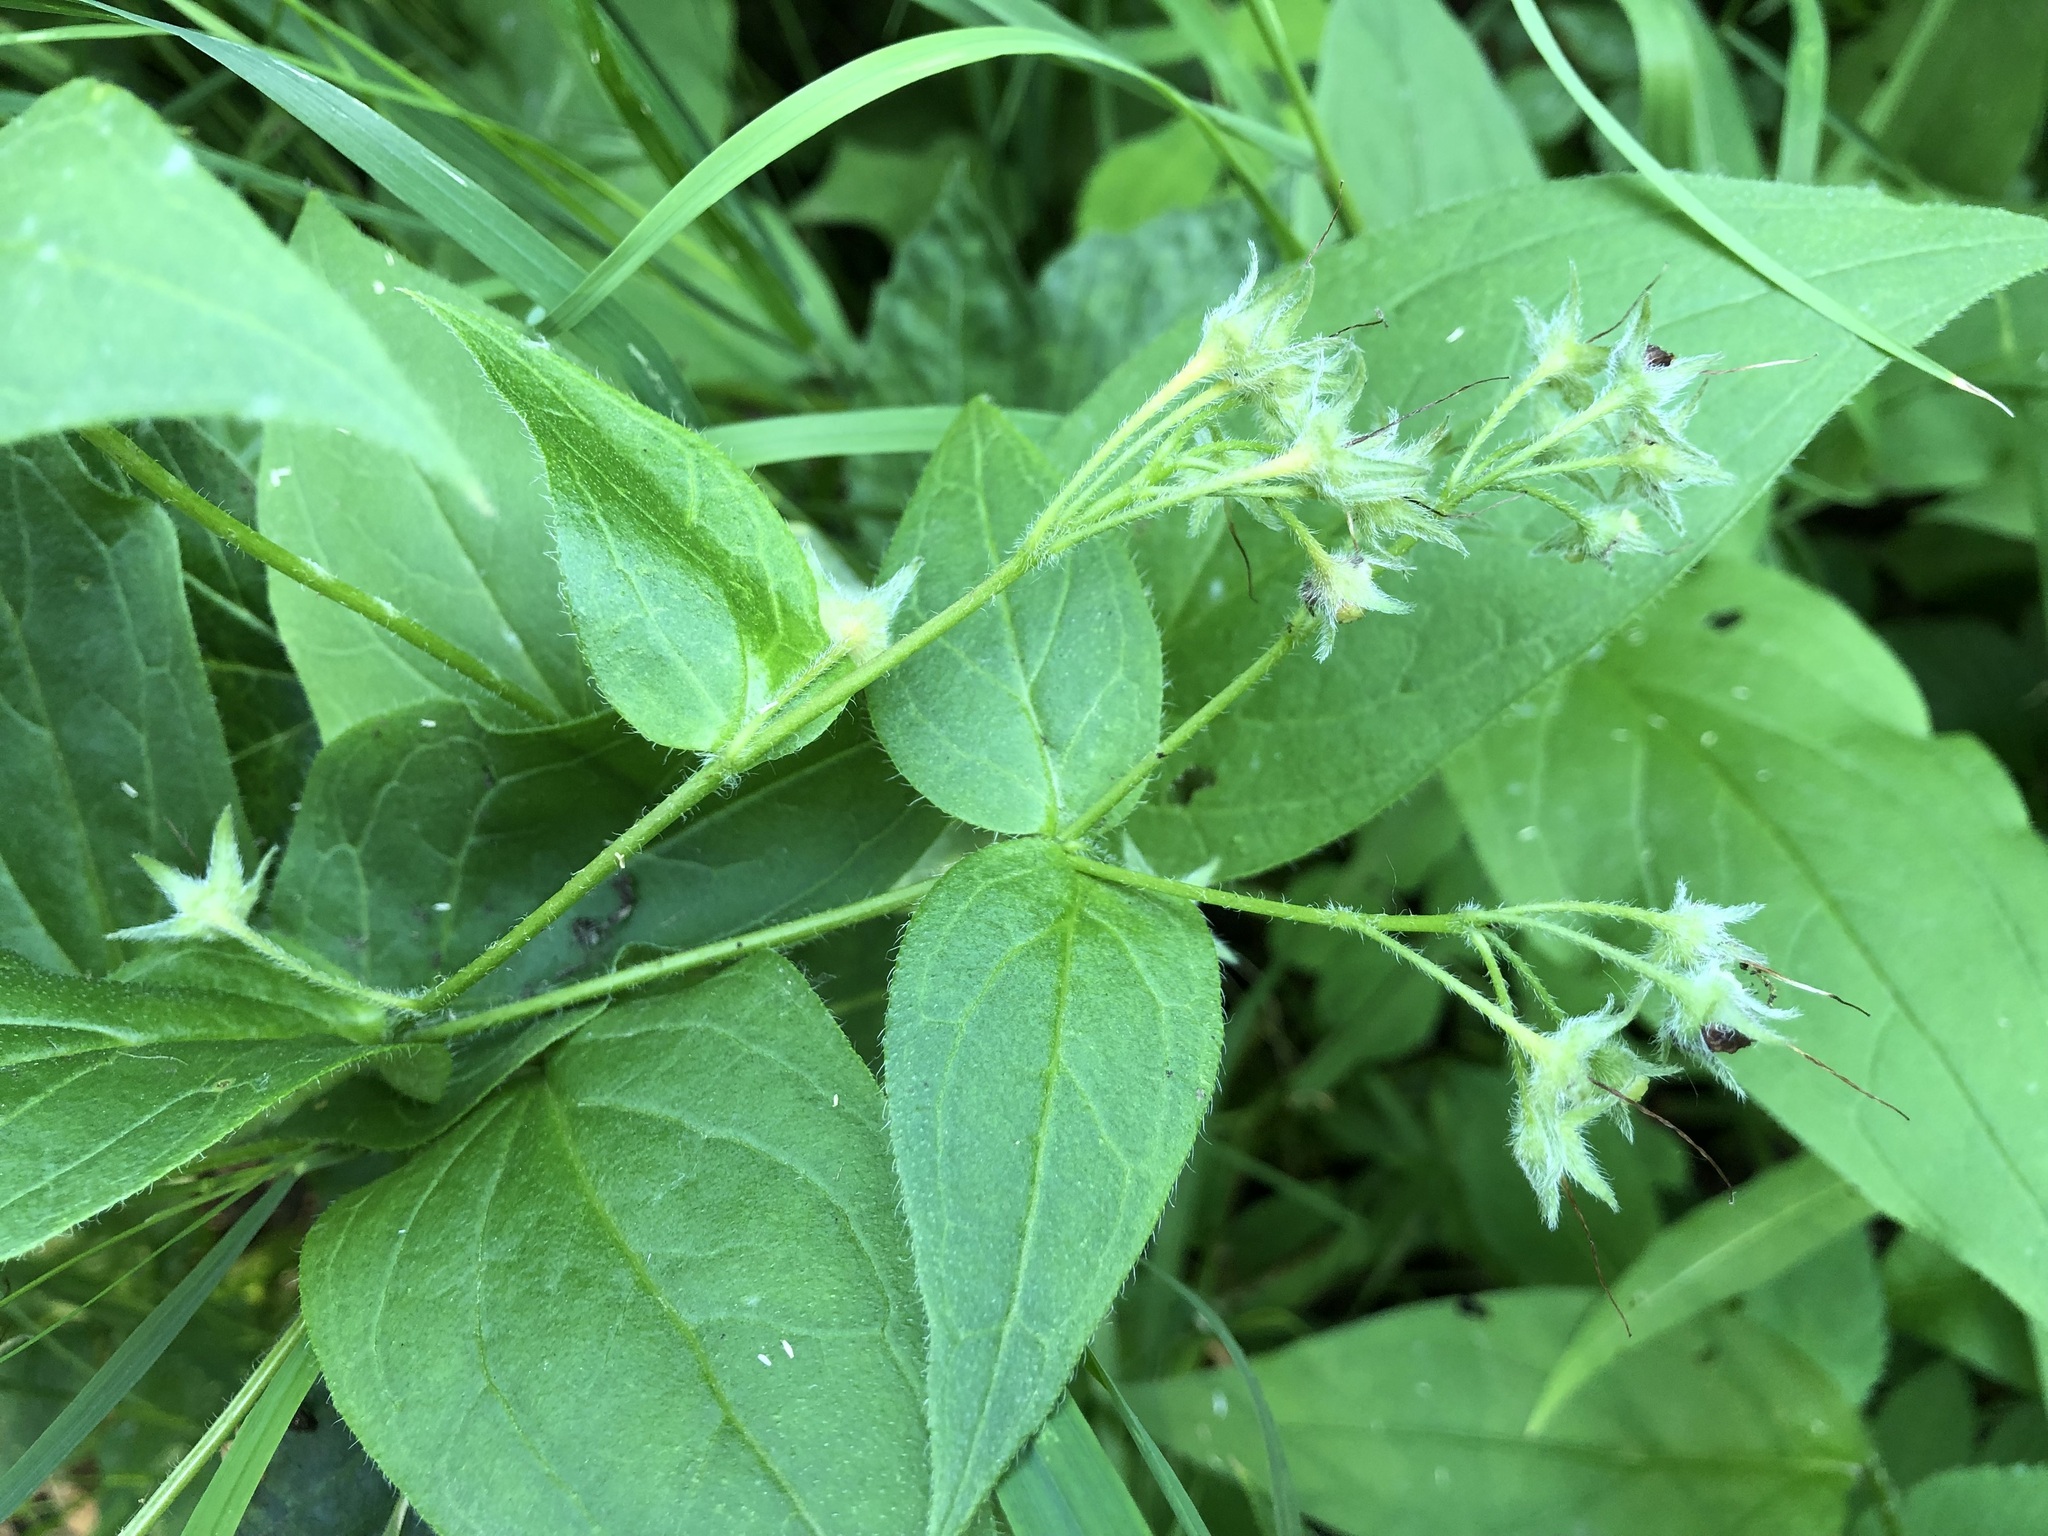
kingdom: Plantae
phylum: Tracheophyta
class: Magnoliopsida
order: Boraginales
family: Boraginaceae
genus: Mertensia
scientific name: Mertensia paniculata
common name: Panicled bluebells
